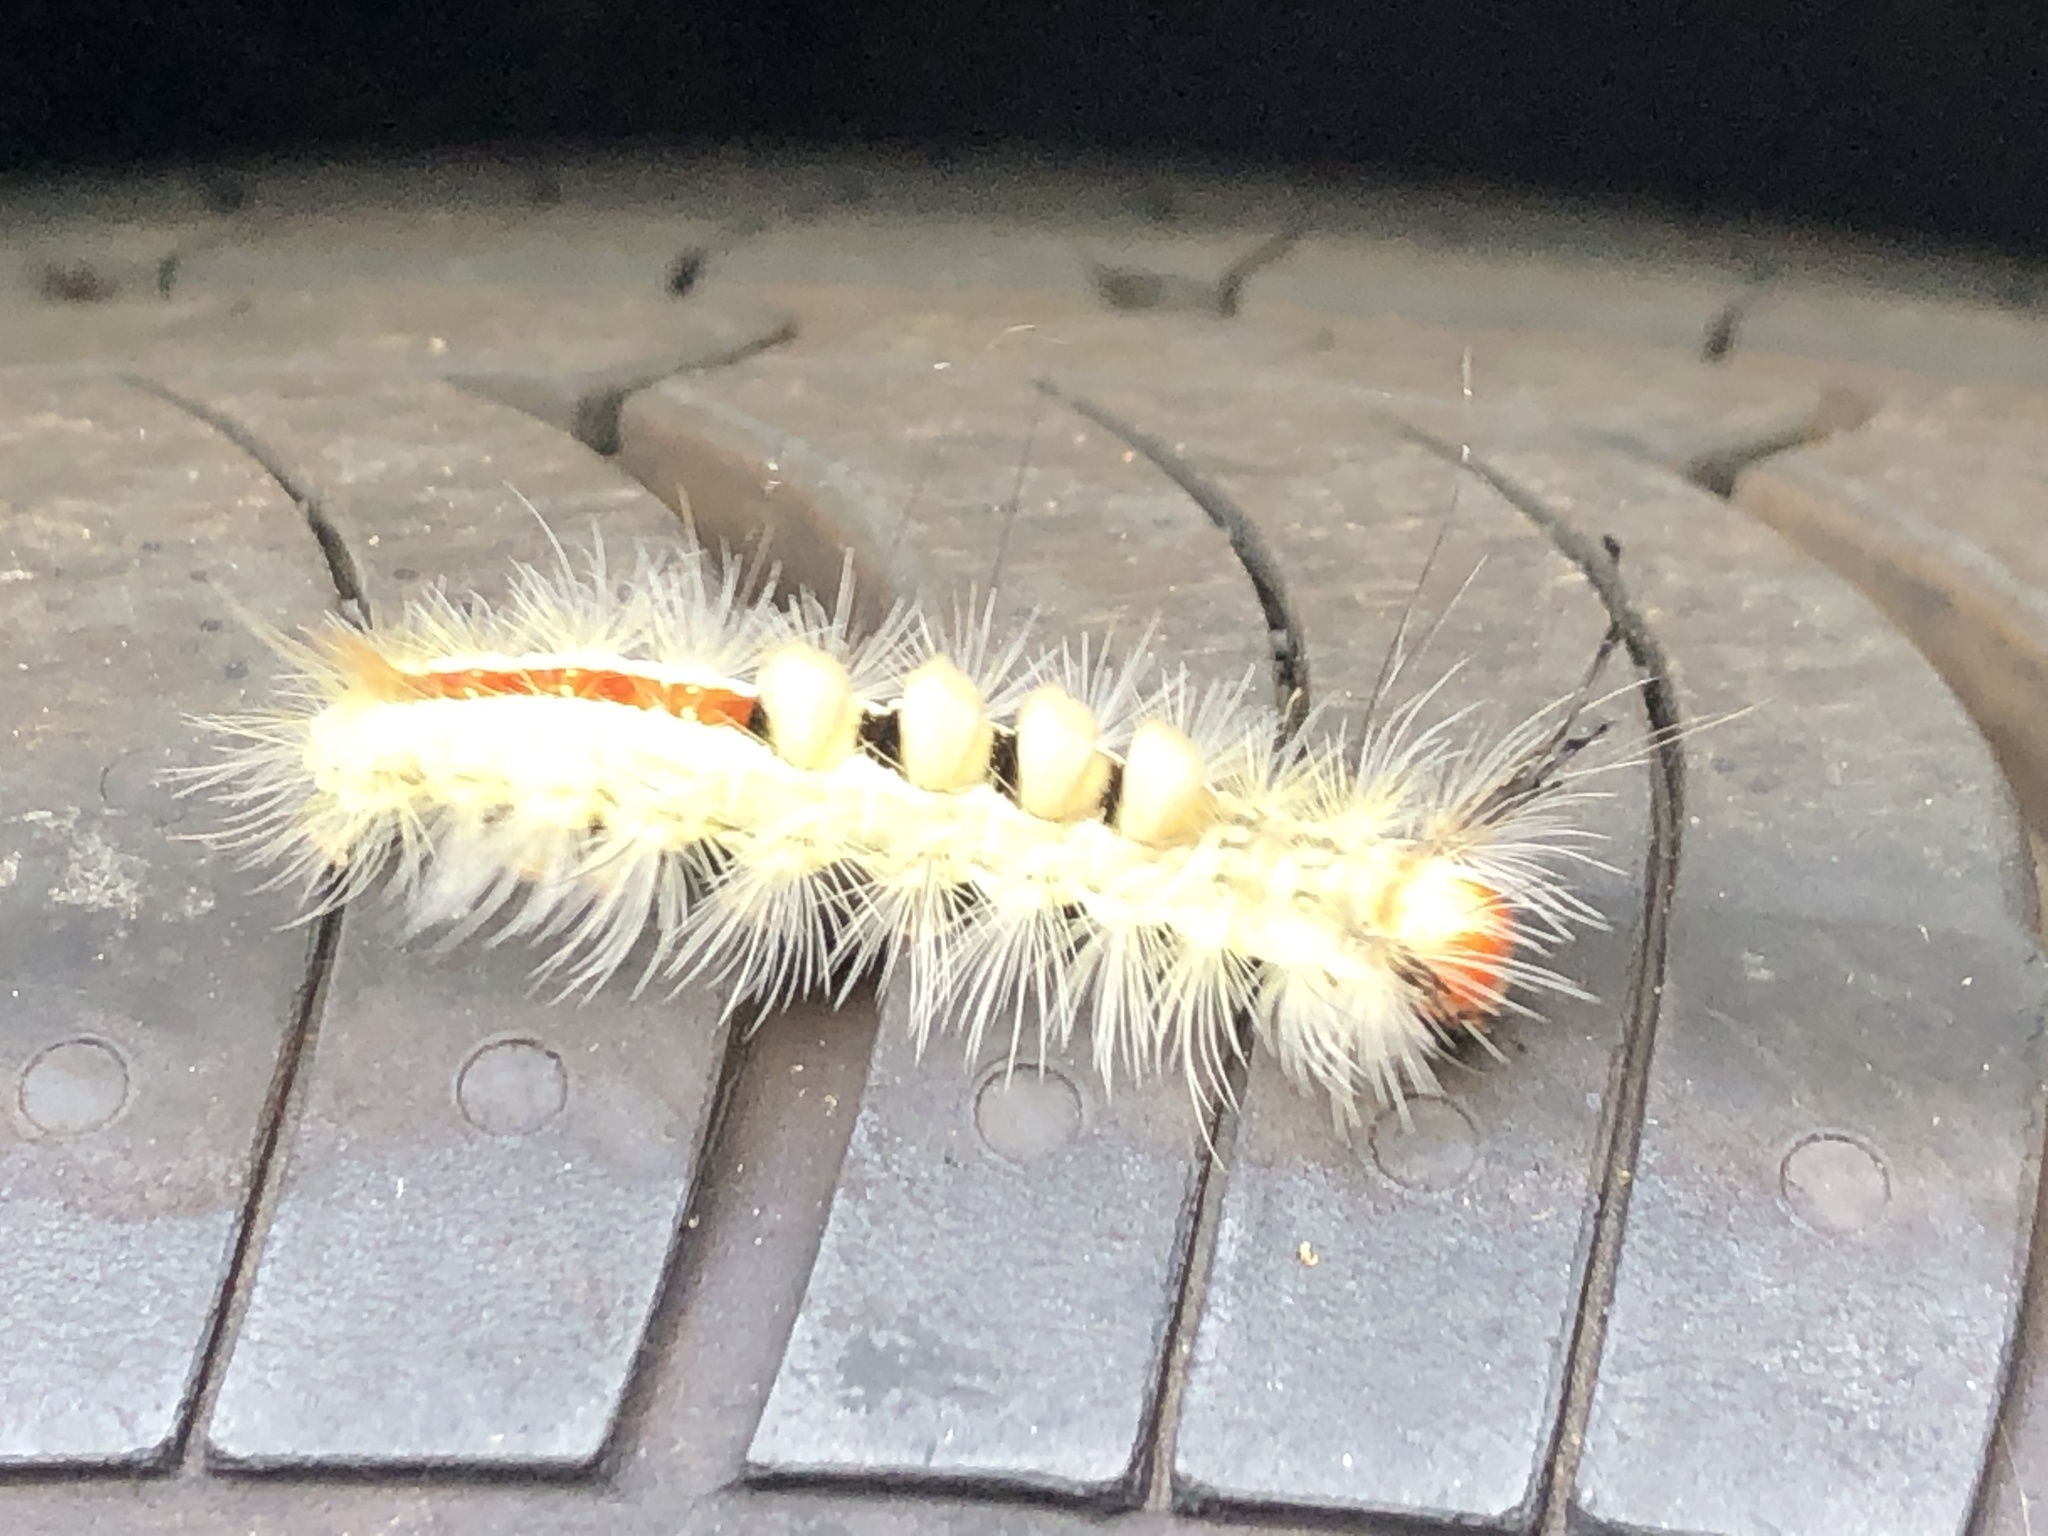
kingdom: Animalia
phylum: Arthropoda
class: Insecta
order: Lepidoptera
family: Erebidae
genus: Orgyia
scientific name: Orgyia leucostigma
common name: White-marked tussock moth
